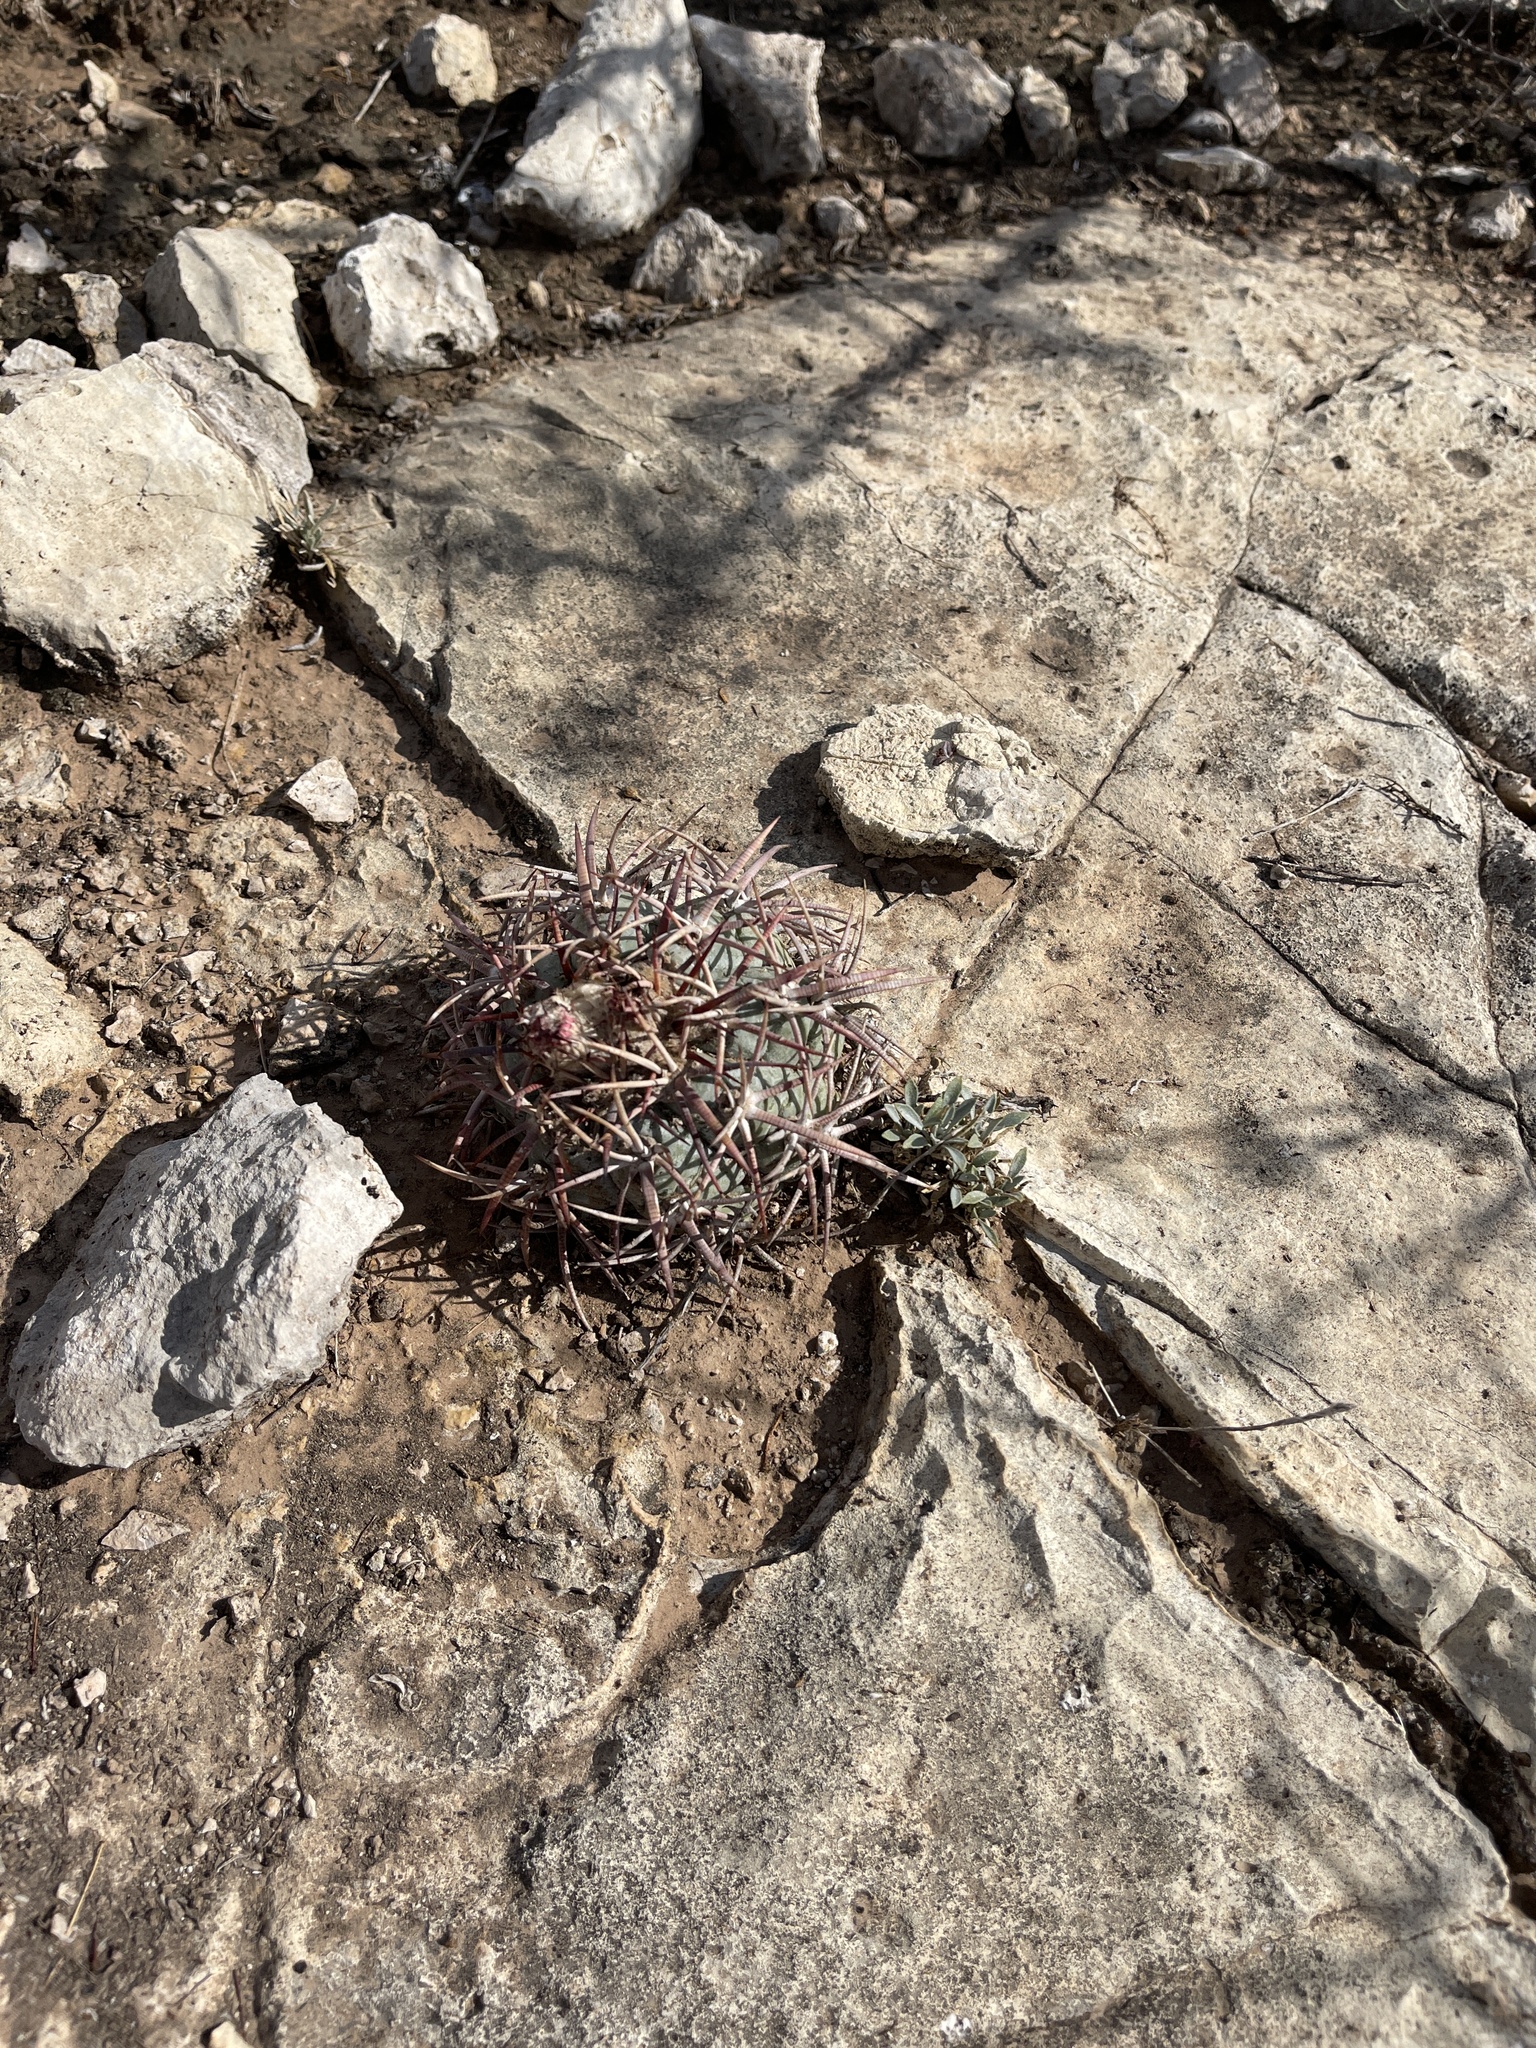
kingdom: Plantae
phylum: Tracheophyta
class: Magnoliopsida
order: Caryophyllales
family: Cactaceae
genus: Echinocactus
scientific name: Echinocactus horizonthalonius
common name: Devilshead
